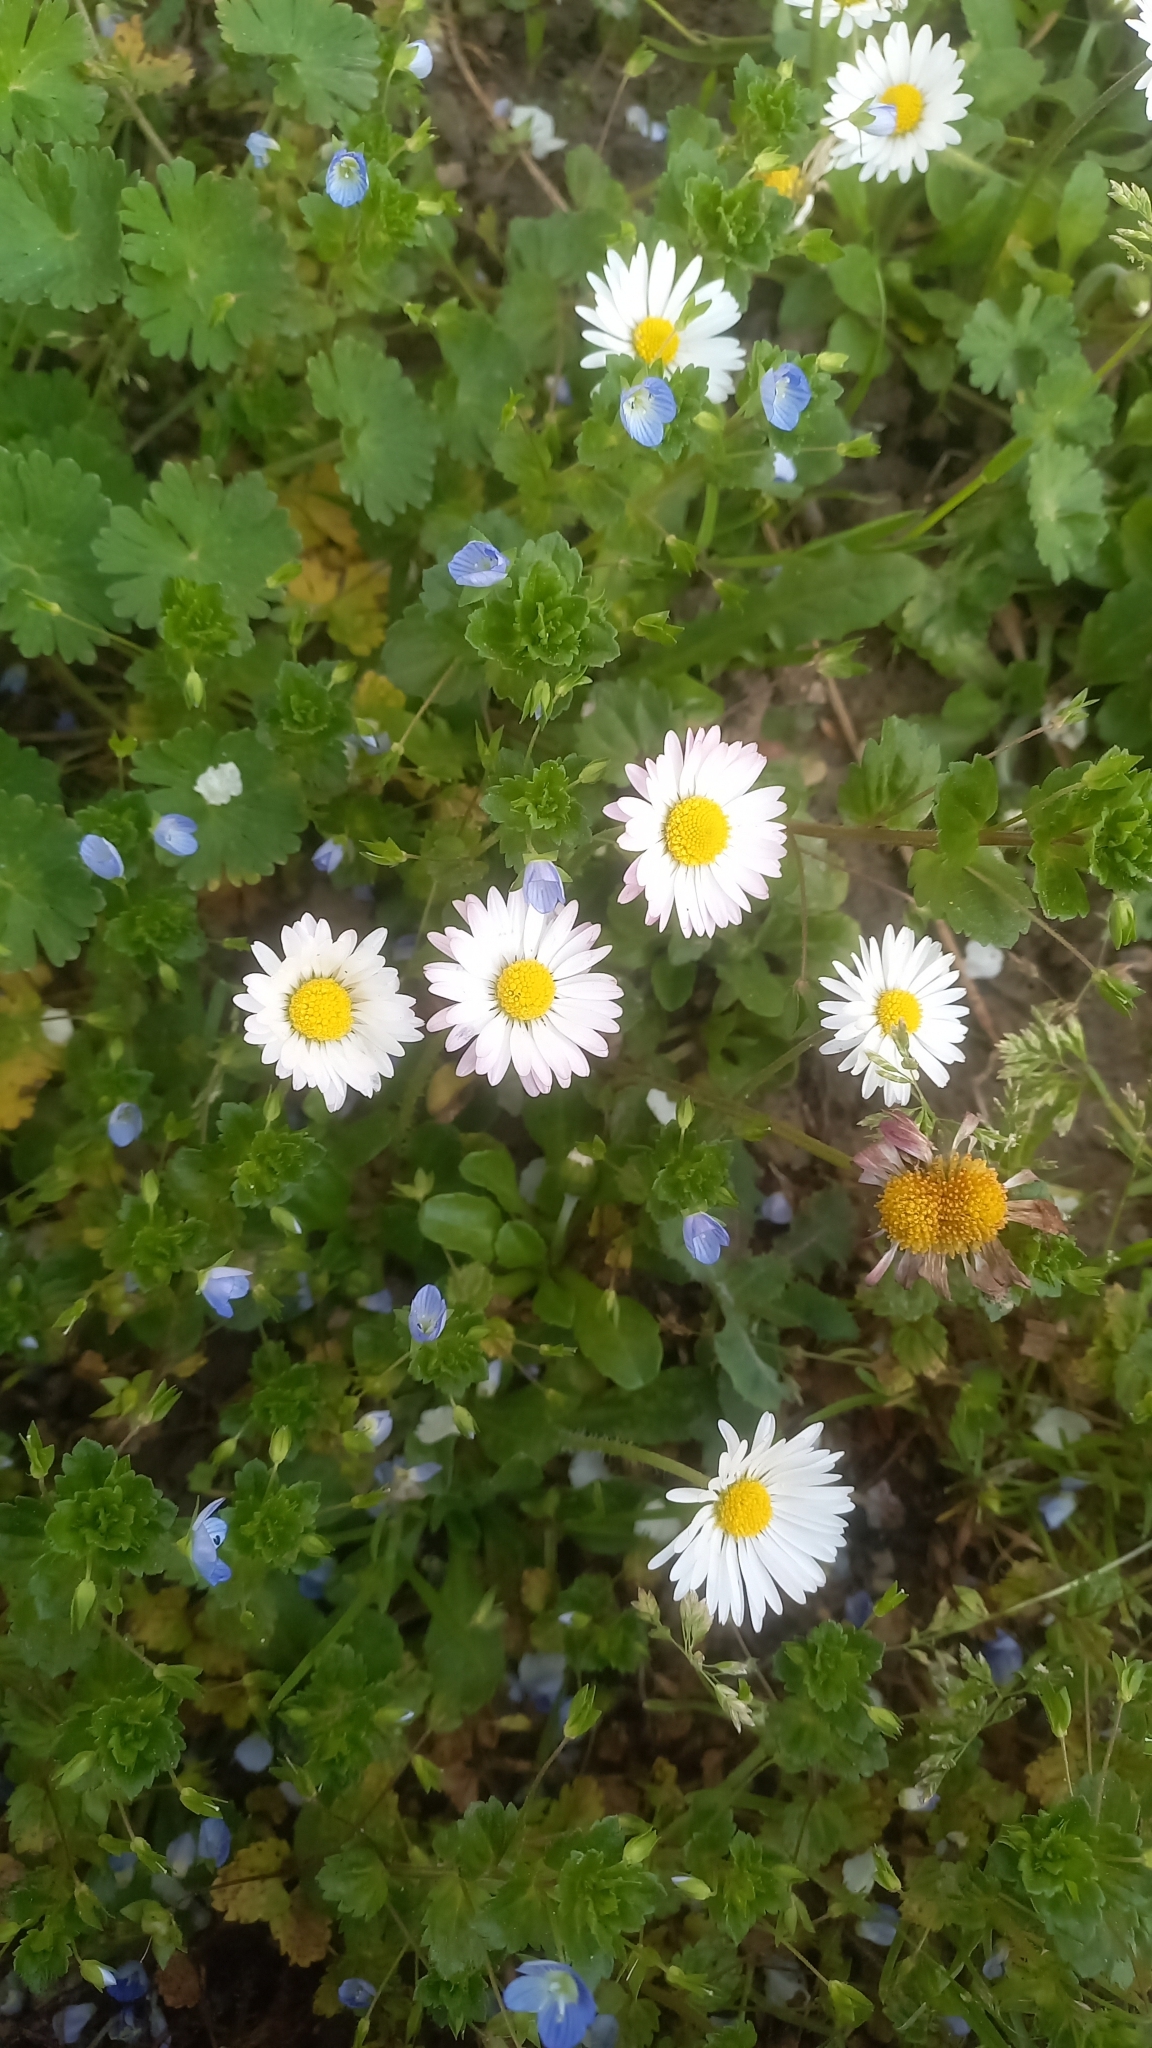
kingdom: Plantae
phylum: Tracheophyta
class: Magnoliopsida
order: Asterales
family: Asteraceae
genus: Bellis
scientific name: Bellis perennis
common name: Lawndaisy
